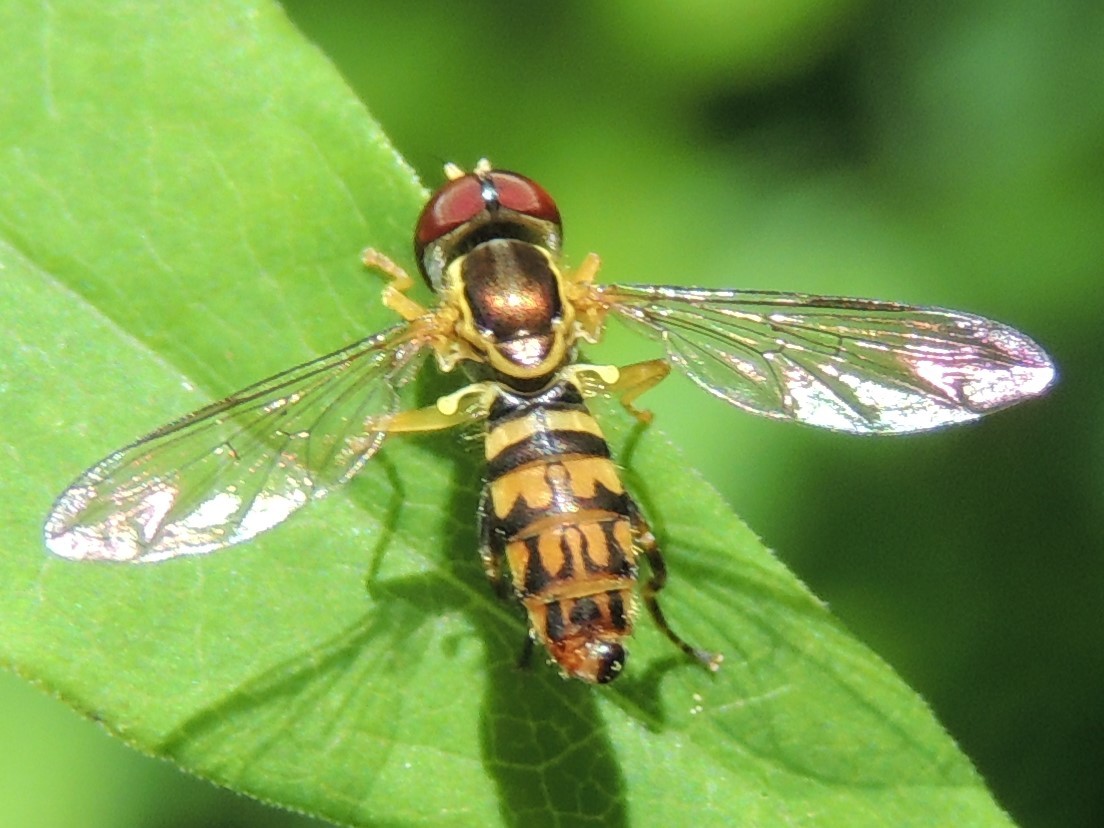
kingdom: Animalia
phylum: Arthropoda
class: Insecta
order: Diptera
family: Syrphidae
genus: Toxomerus
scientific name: Toxomerus geminatus
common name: Eastern calligrapher
